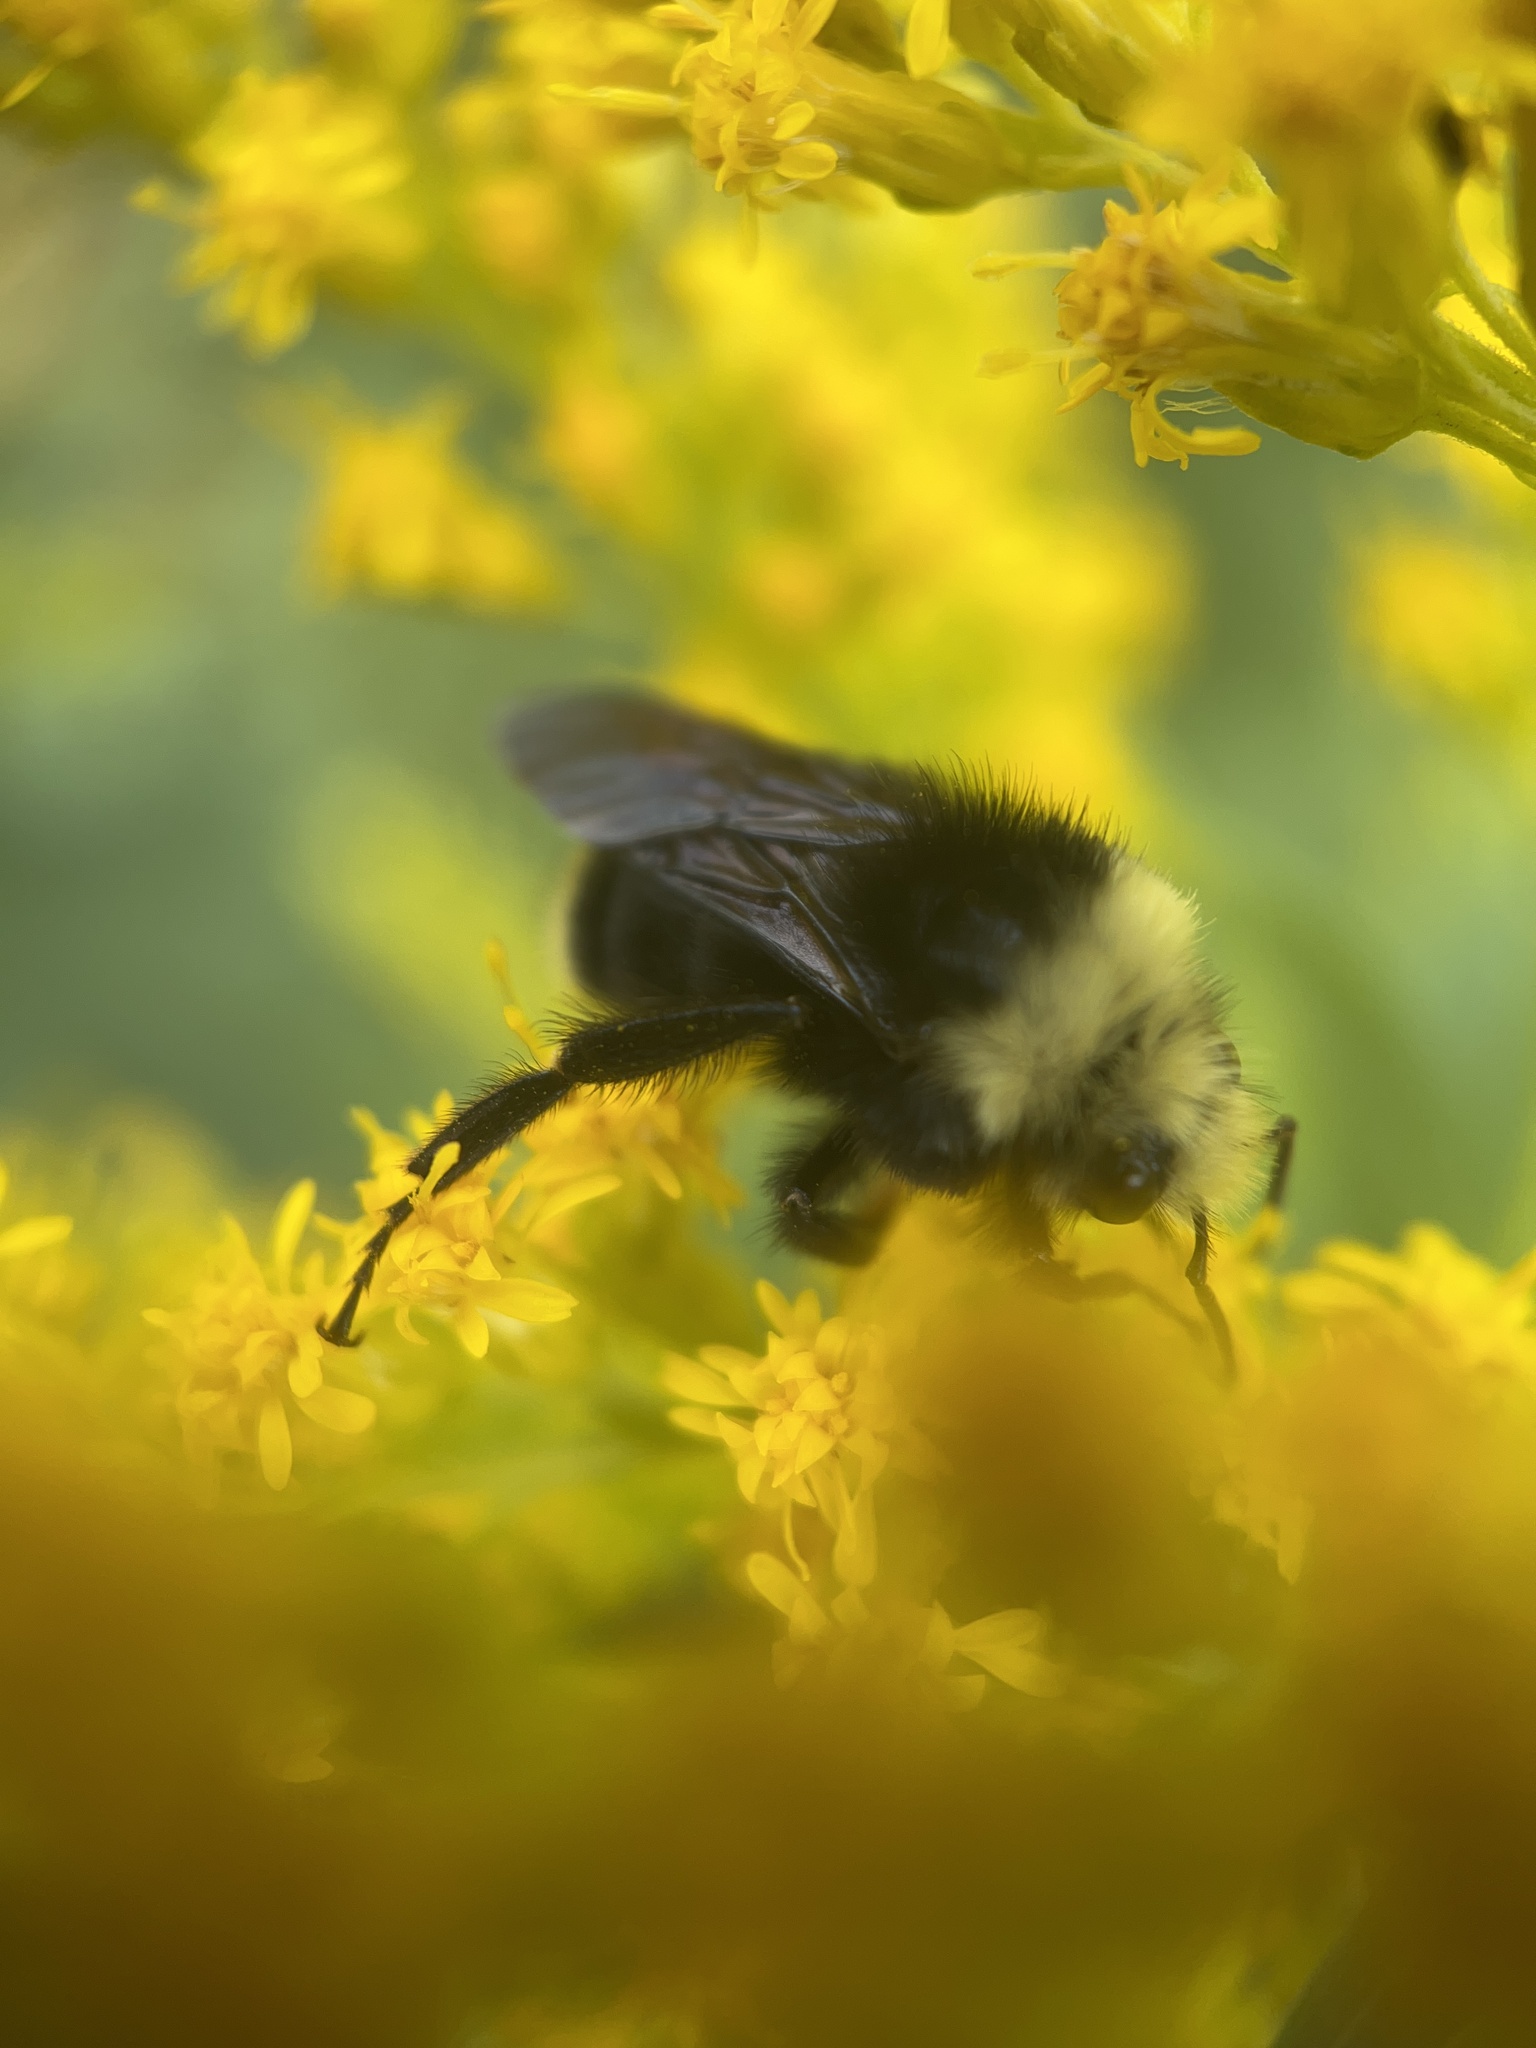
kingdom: Animalia
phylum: Arthropoda
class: Insecta
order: Hymenoptera
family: Apidae
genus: Bombus
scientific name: Bombus vosnesenskii
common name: Vosnesensky bumble bee
